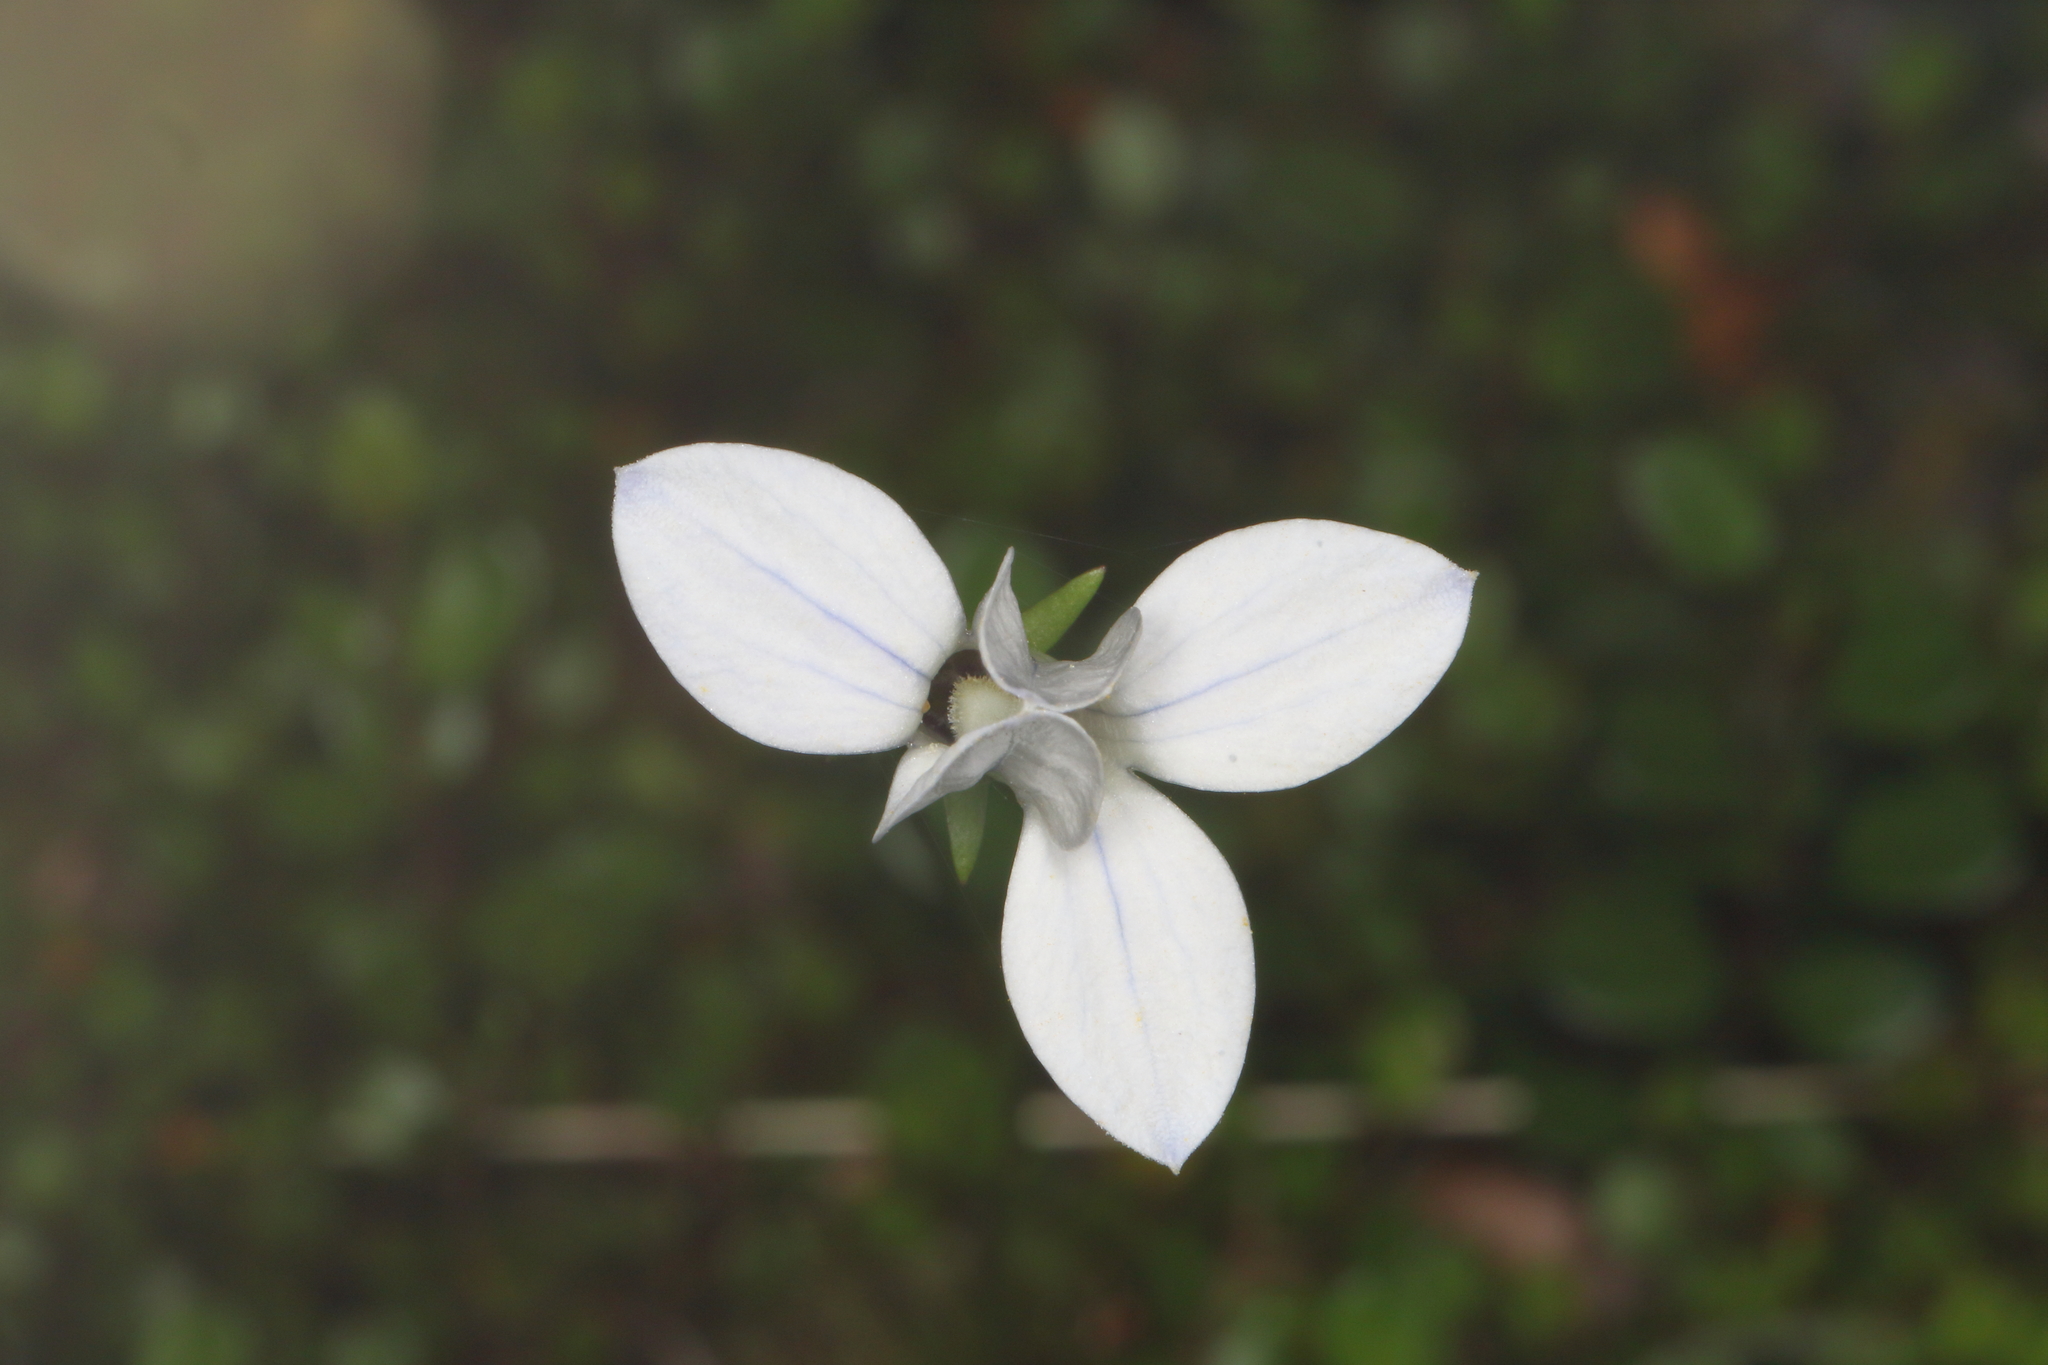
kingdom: Plantae
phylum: Tracheophyta
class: Magnoliopsida
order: Asterales
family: Campanulaceae
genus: Wahlenbergia
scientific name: Wahlenbergia albomarginata
